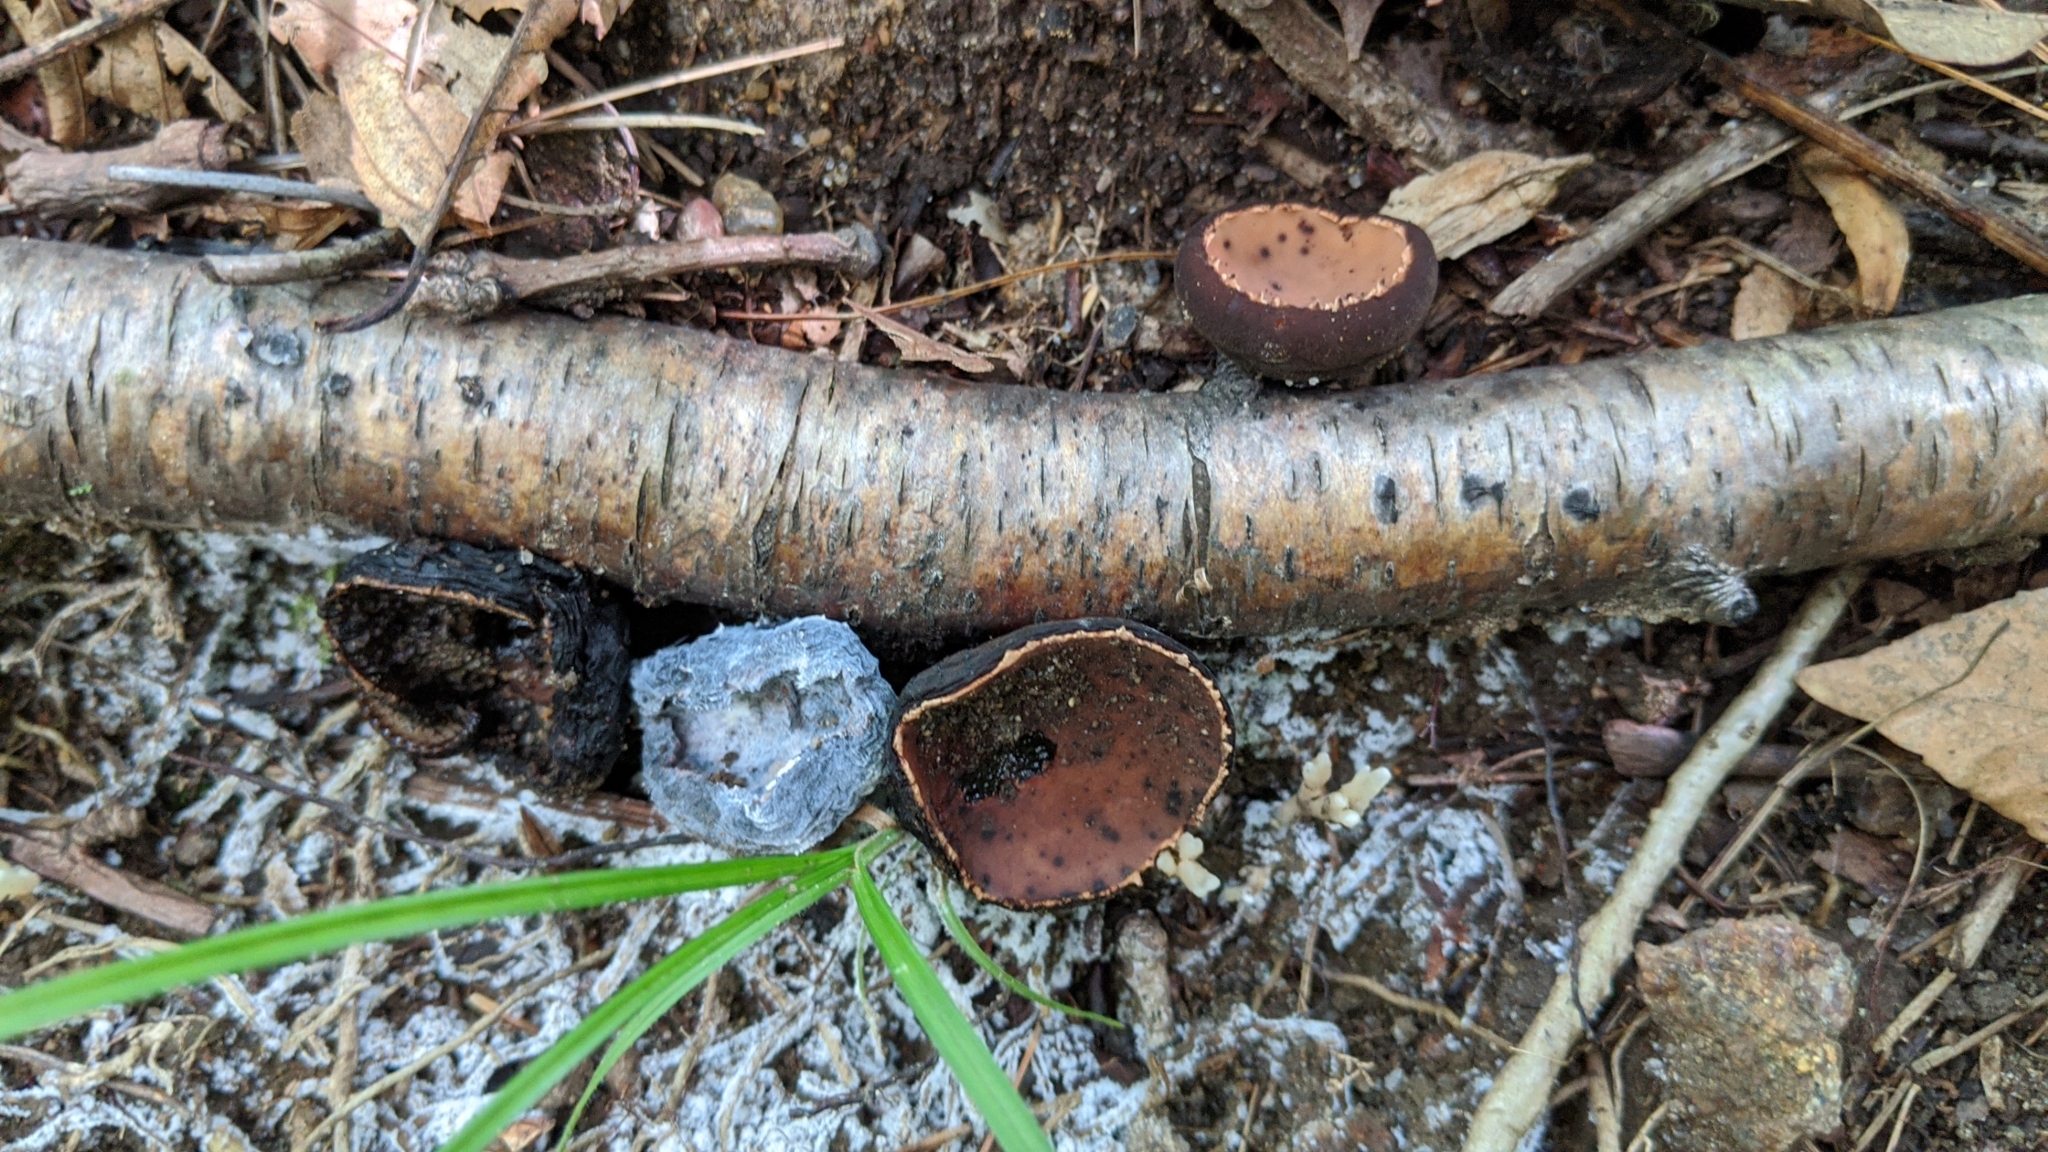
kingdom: Fungi
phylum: Ascomycota
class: Pezizomycetes
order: Pezizales
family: Sarcosomataceae
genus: Galiella
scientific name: Galiella rufa
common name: Hairy rubber cup
